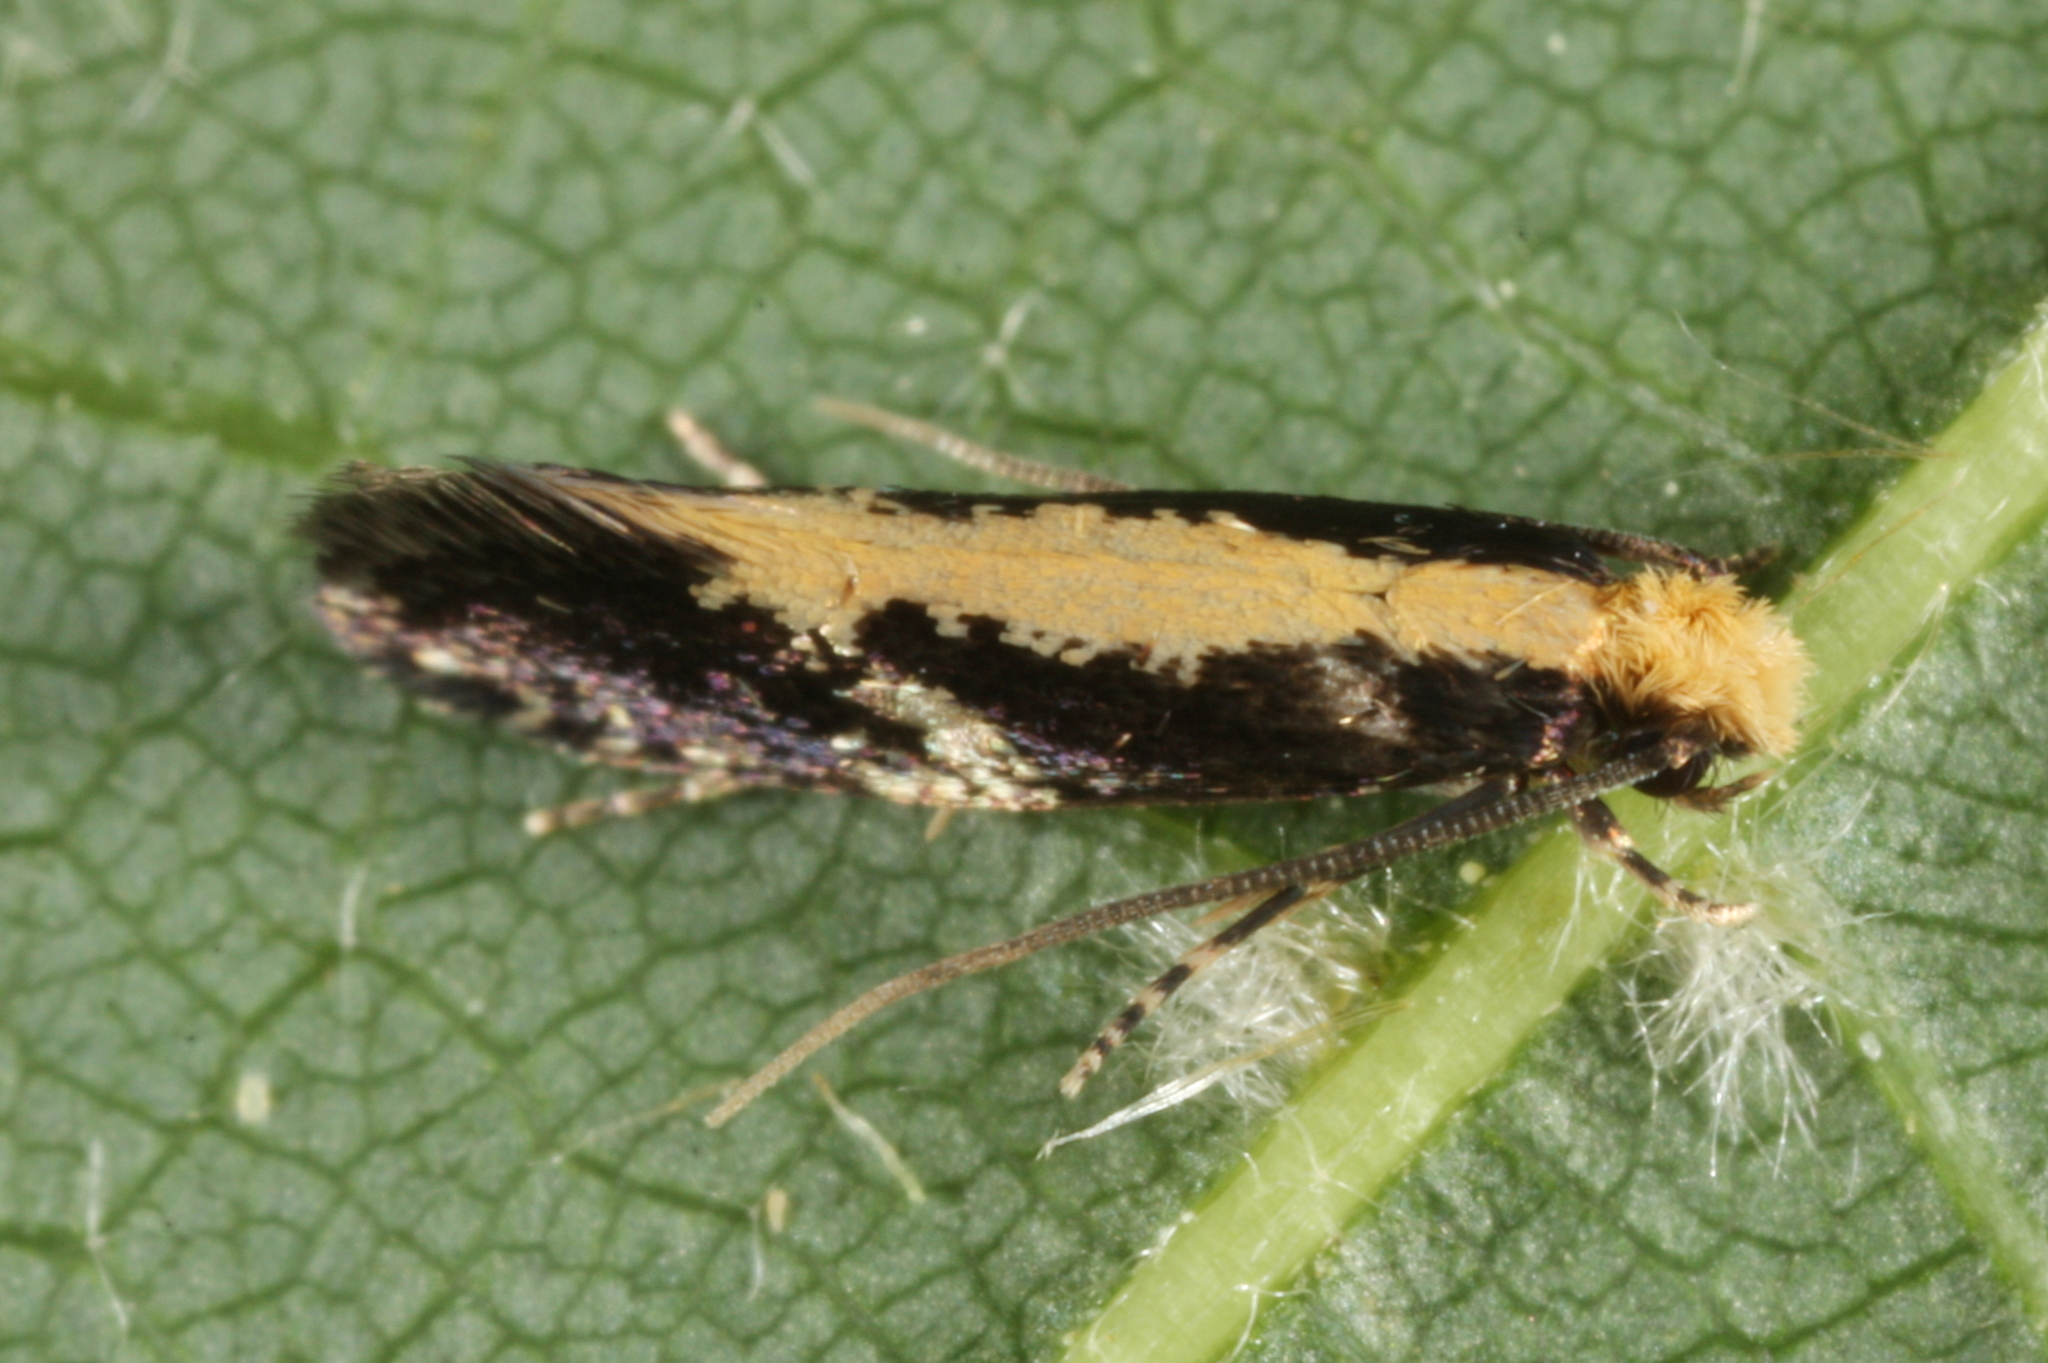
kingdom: Animalia
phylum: Arthropoda
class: Insecta
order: Lepidoptera
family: Tineidae
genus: Monopis
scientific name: Monopis obviella
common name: Tineid moth
